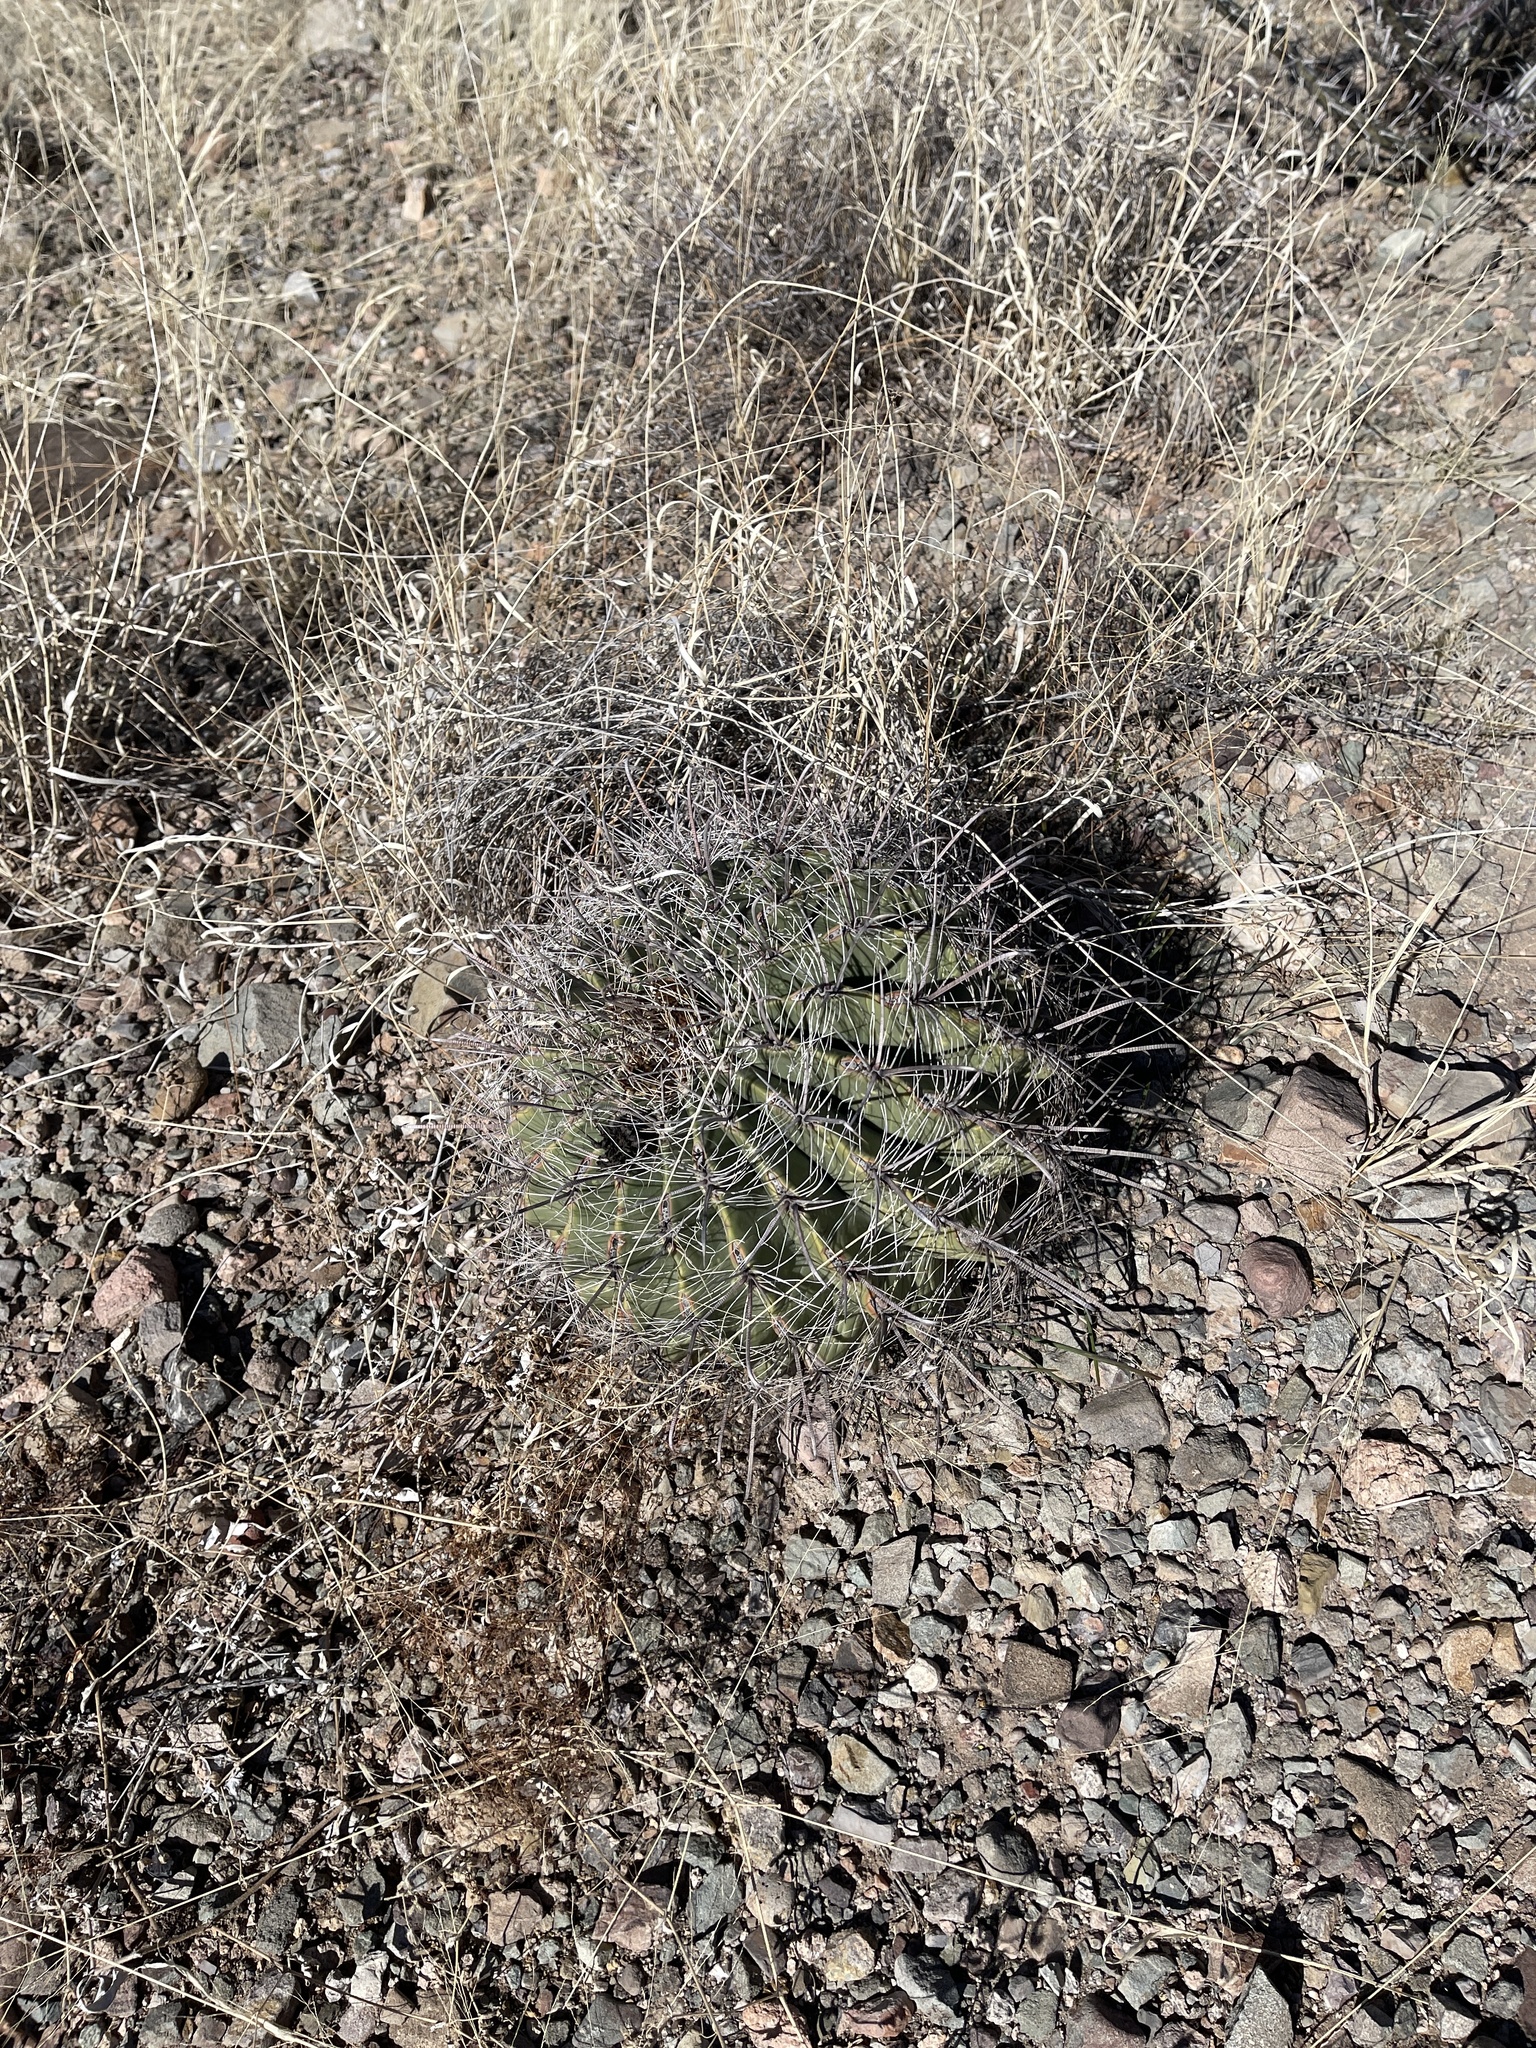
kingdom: Plantae
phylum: Tracheophyta
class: Magnoliopsida
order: Caryophyllales
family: Cactaceae
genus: Ferocactus
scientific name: Ferocactus wislizeni
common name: Candy barrel cactus
